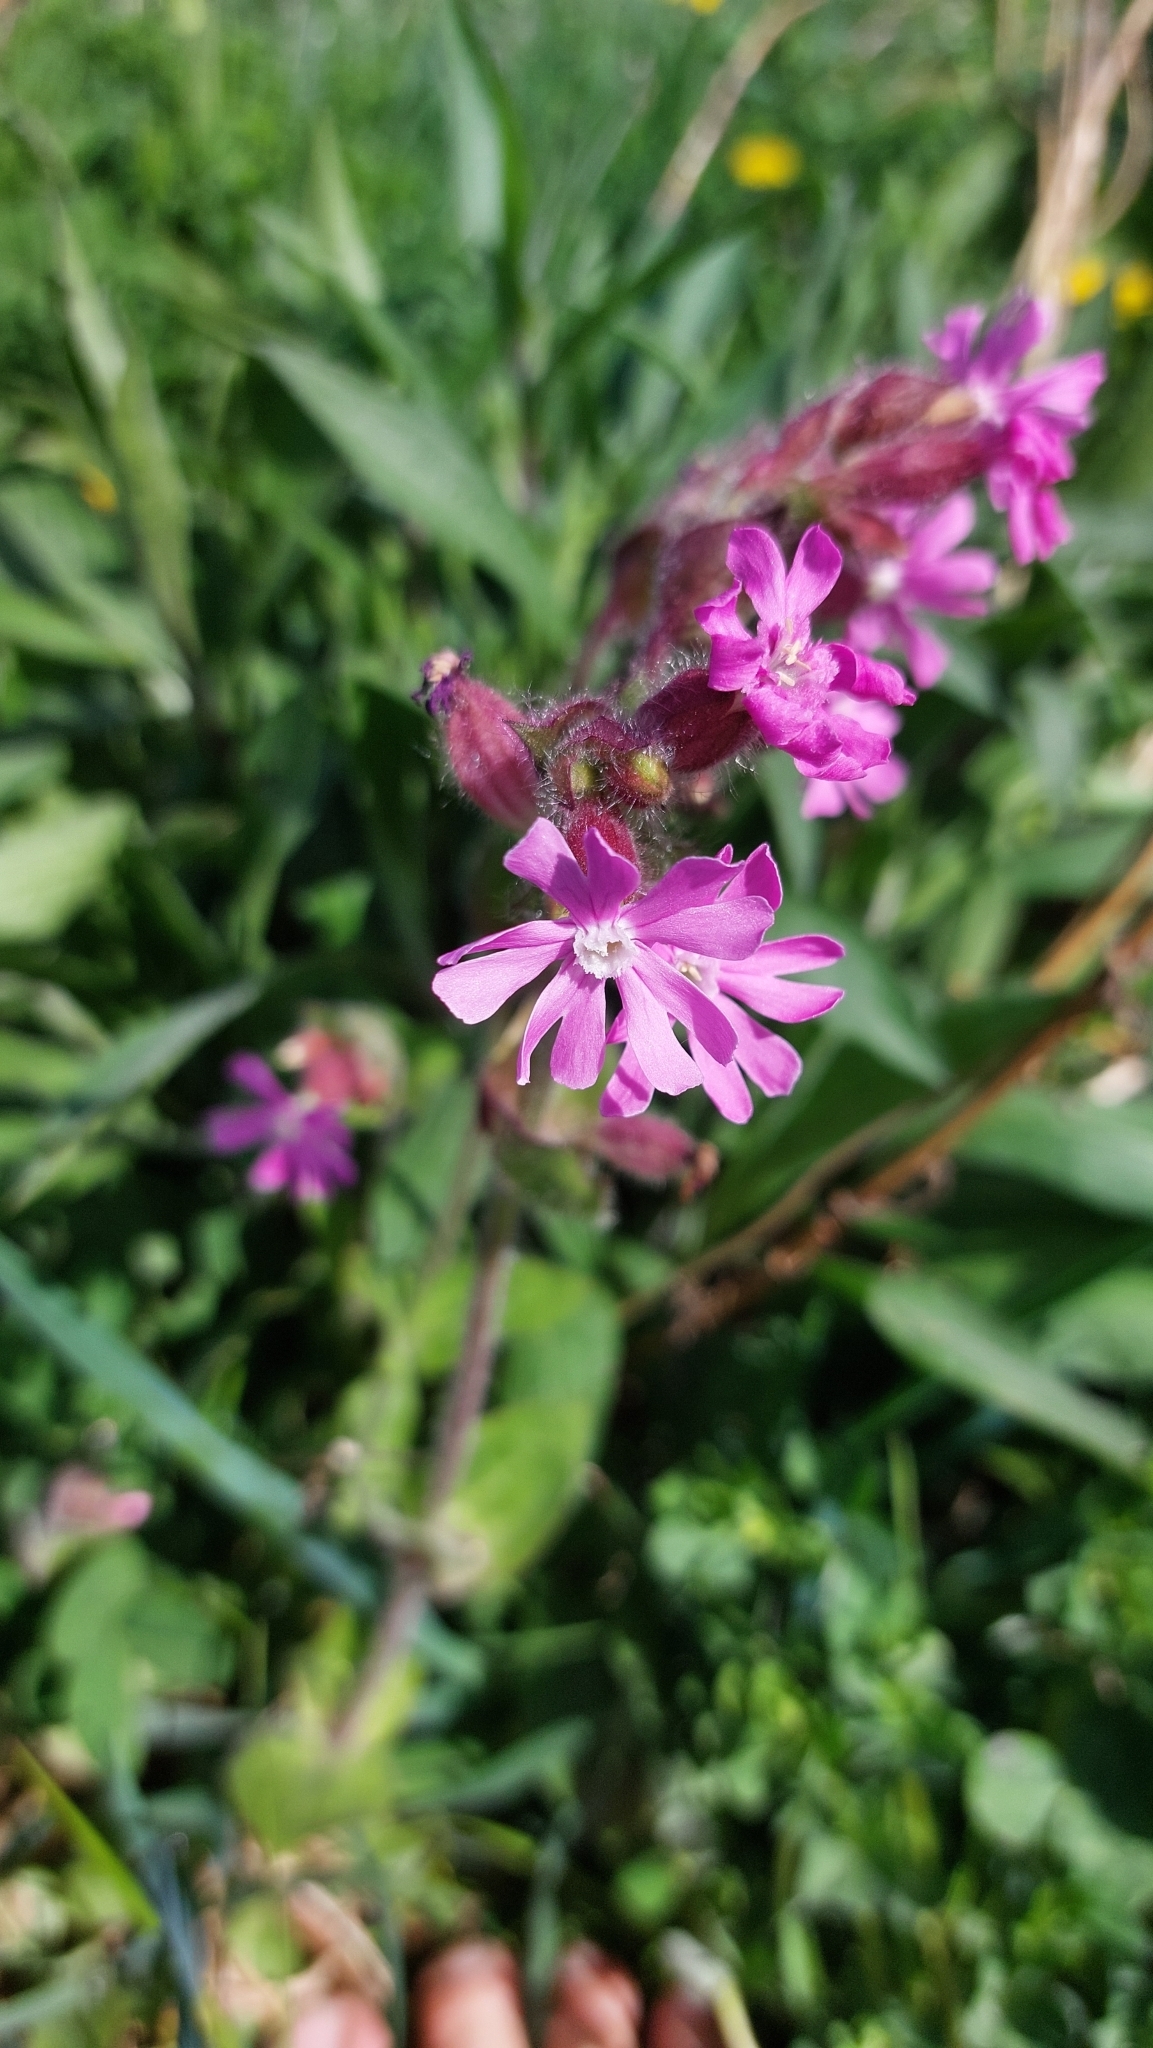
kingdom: Plantae
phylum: Tracheophyta
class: Magnoliopsida
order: Caryophyllales
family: Caryophyllaceae
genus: Silene
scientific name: Silene dioica
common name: Red campion
